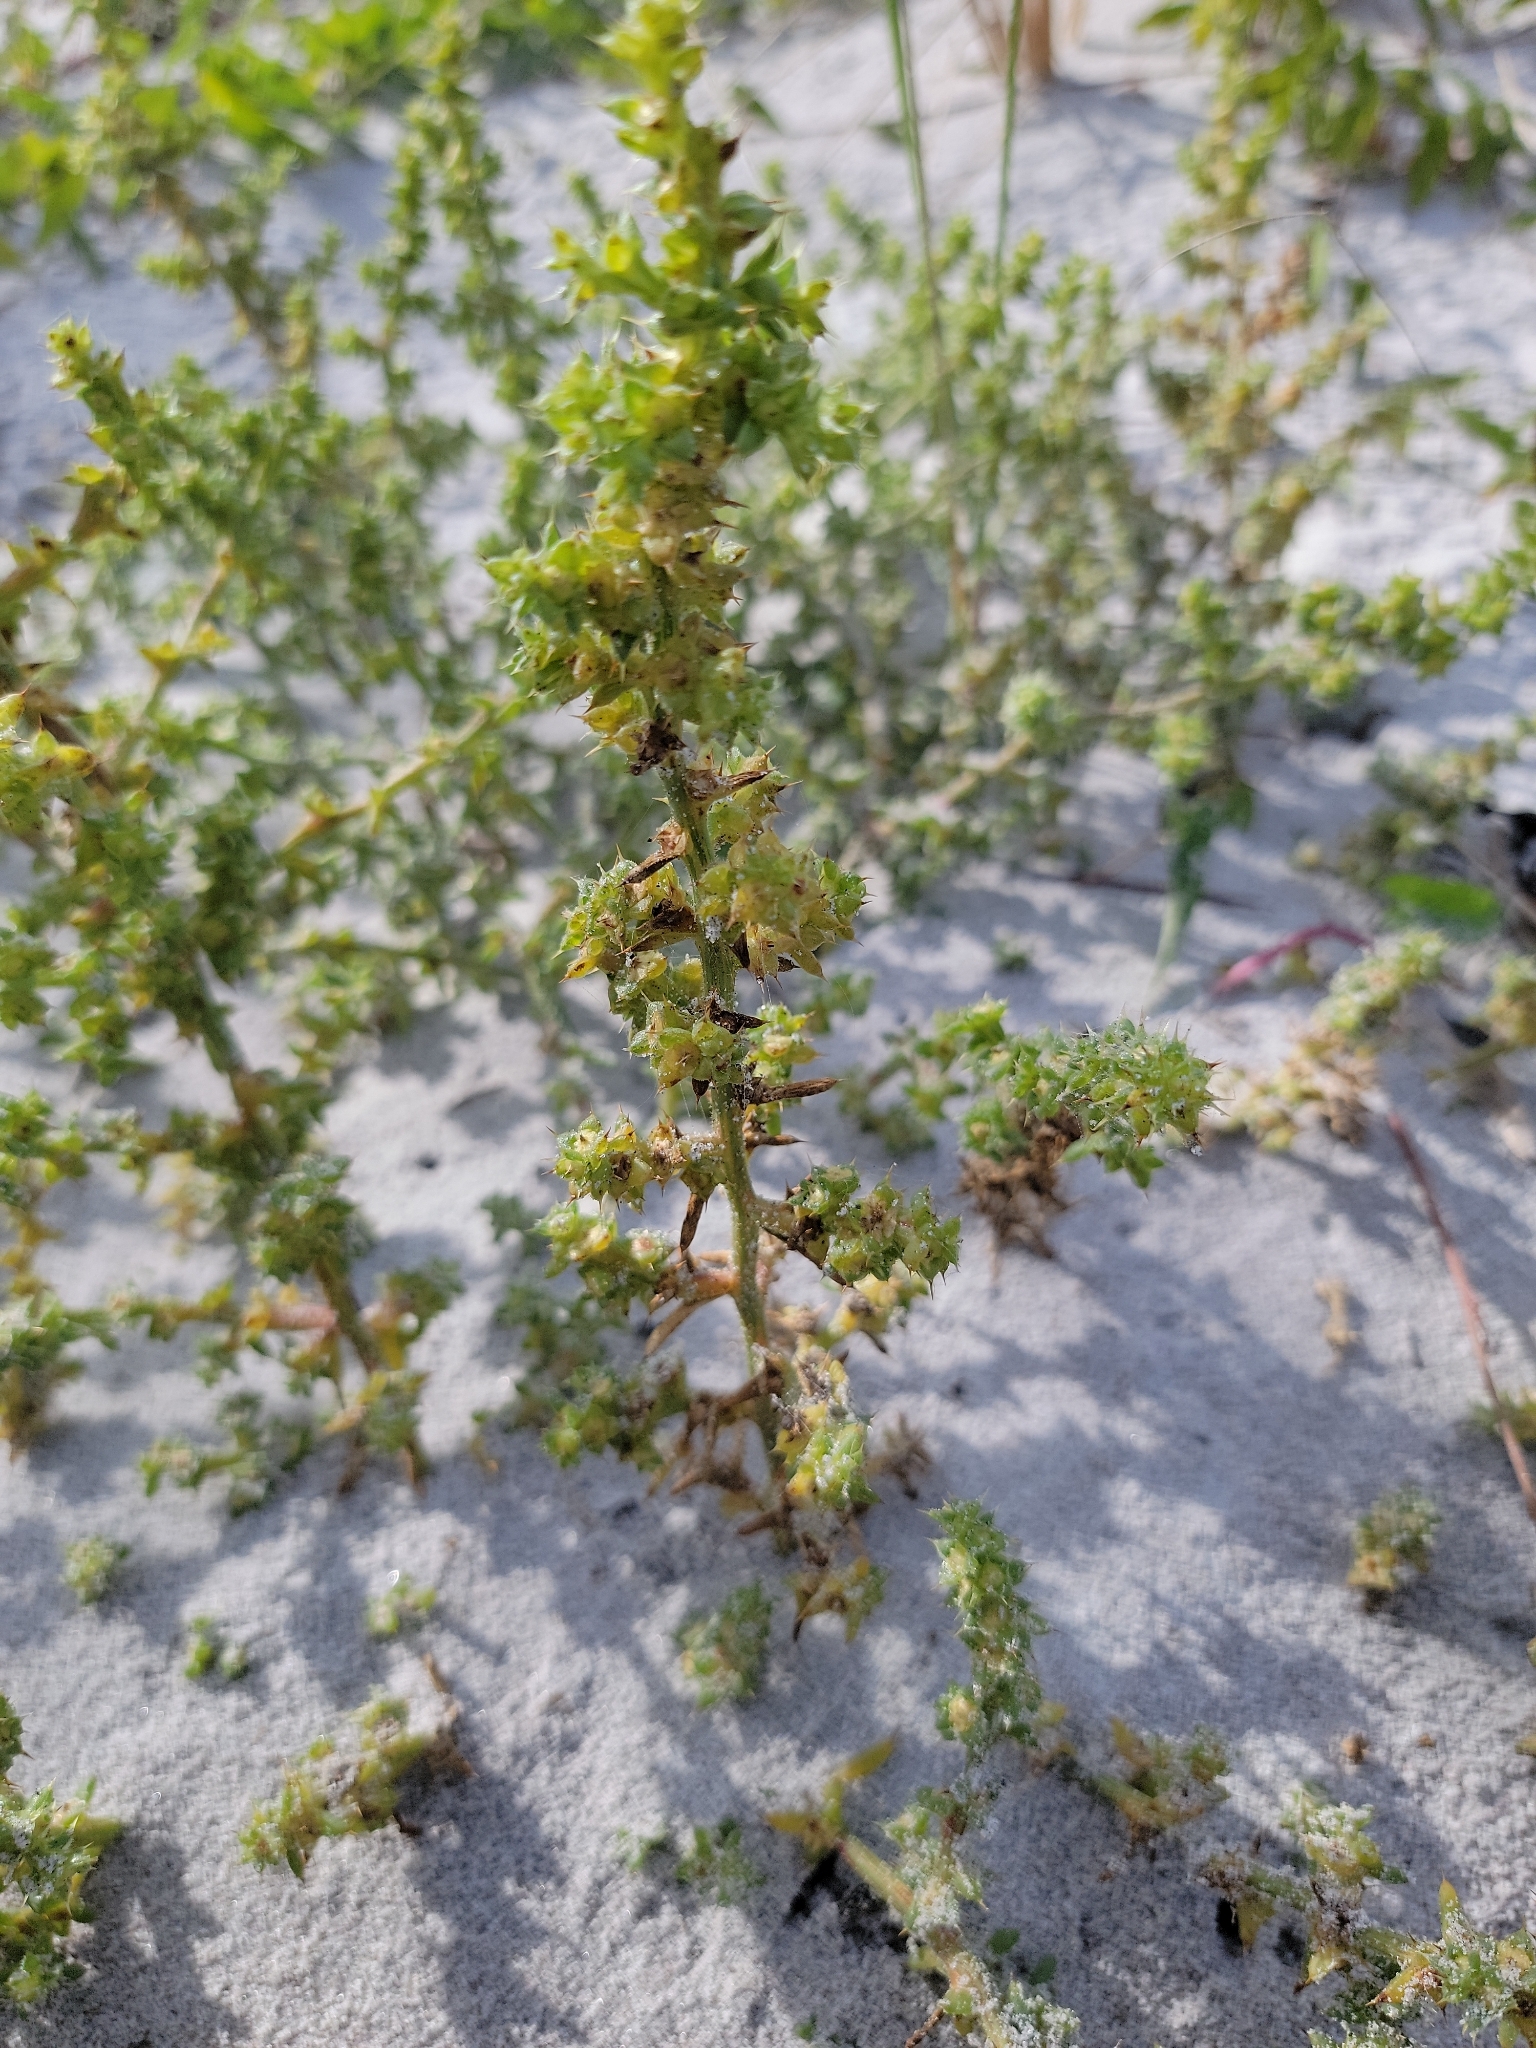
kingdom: Plantae
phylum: Tracheophyta
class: Magnoliopsida
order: Caryophyllales
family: Amaranthaceae
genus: Salsola
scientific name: Salsola kali
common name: Saltwort
